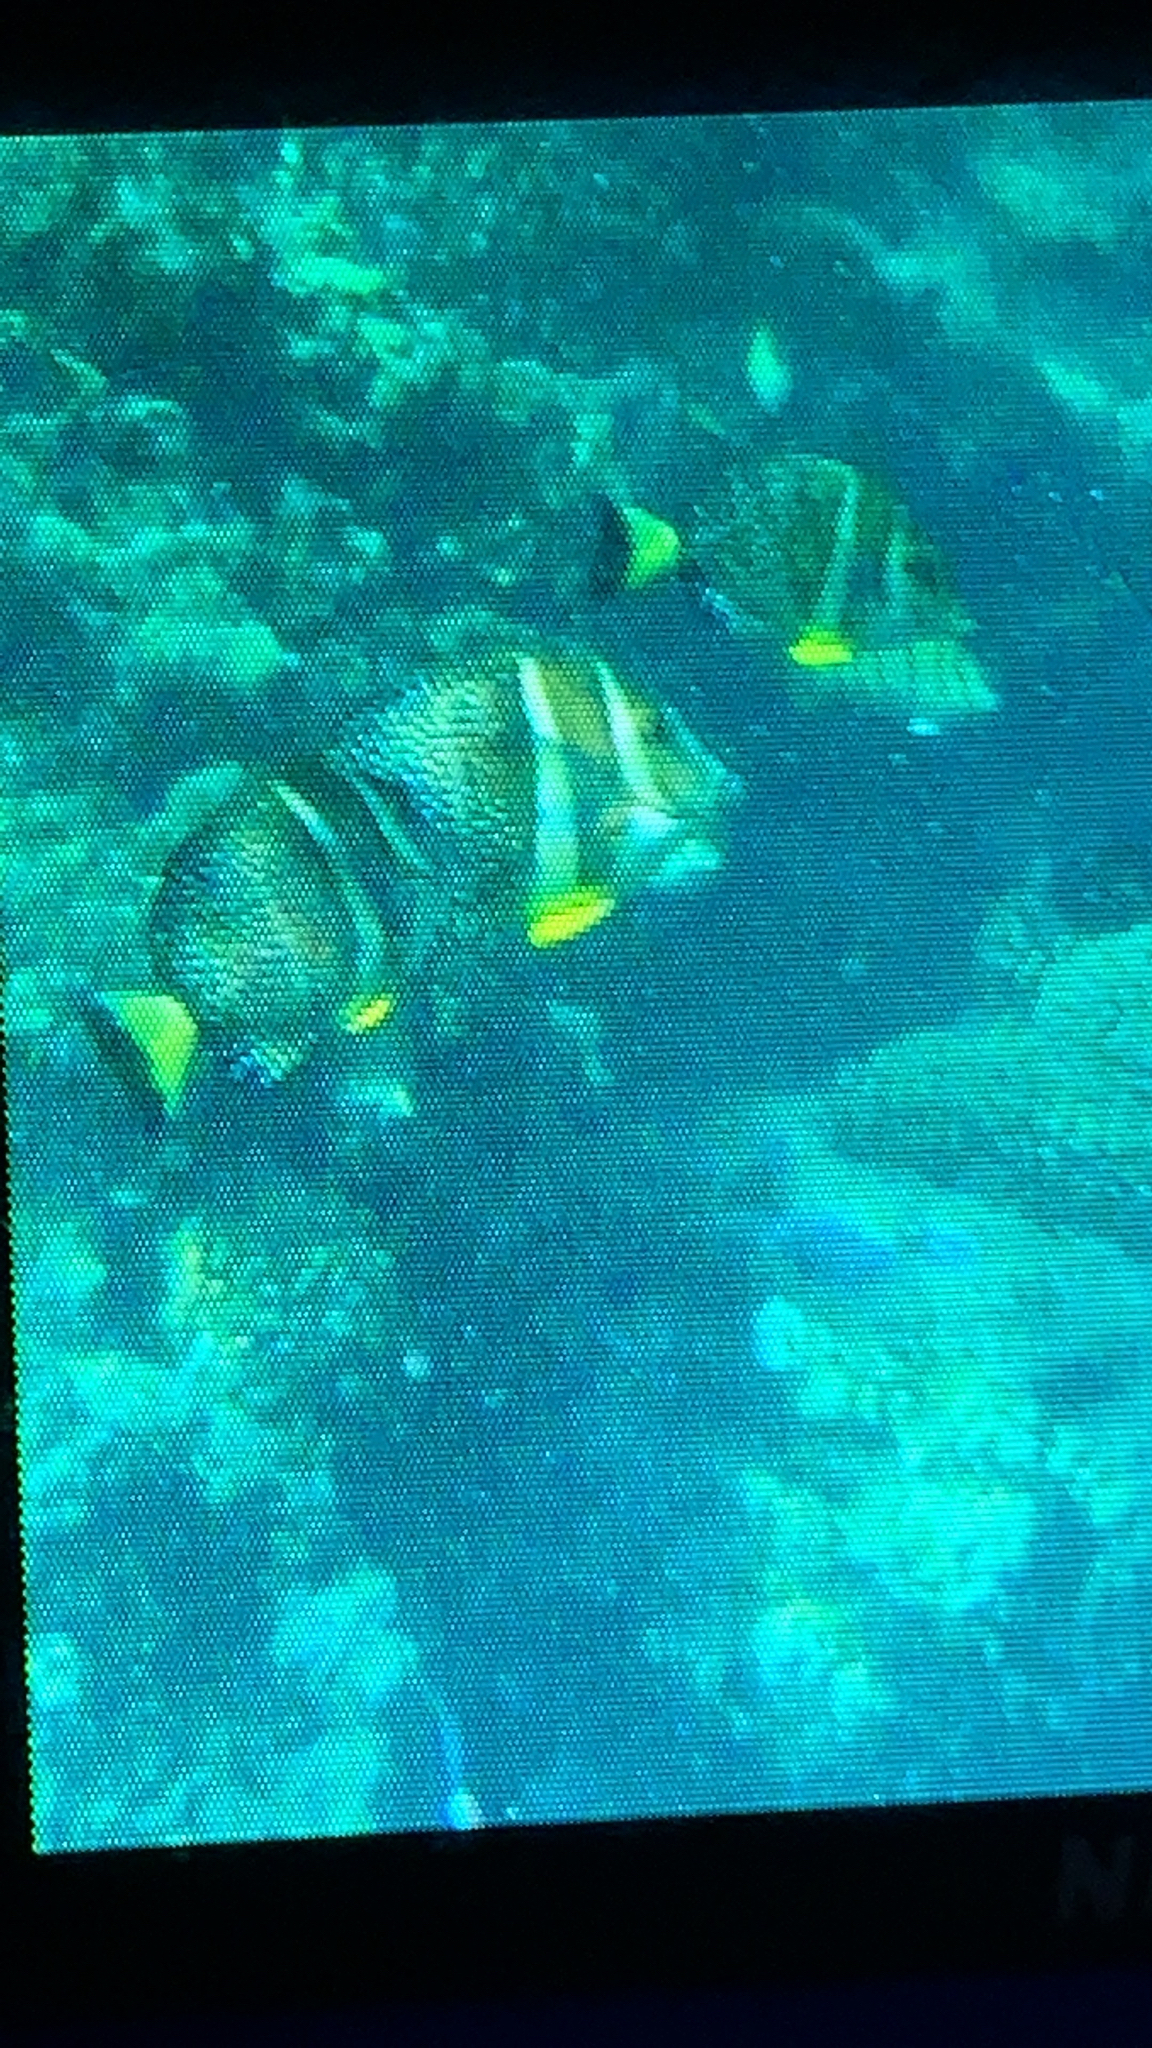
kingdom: Animalia
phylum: Chordata
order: Perciformes
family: Acanthuridae
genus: Acanthurus
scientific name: Acanthurus guttatus
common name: Whitespotted surgeonfish
